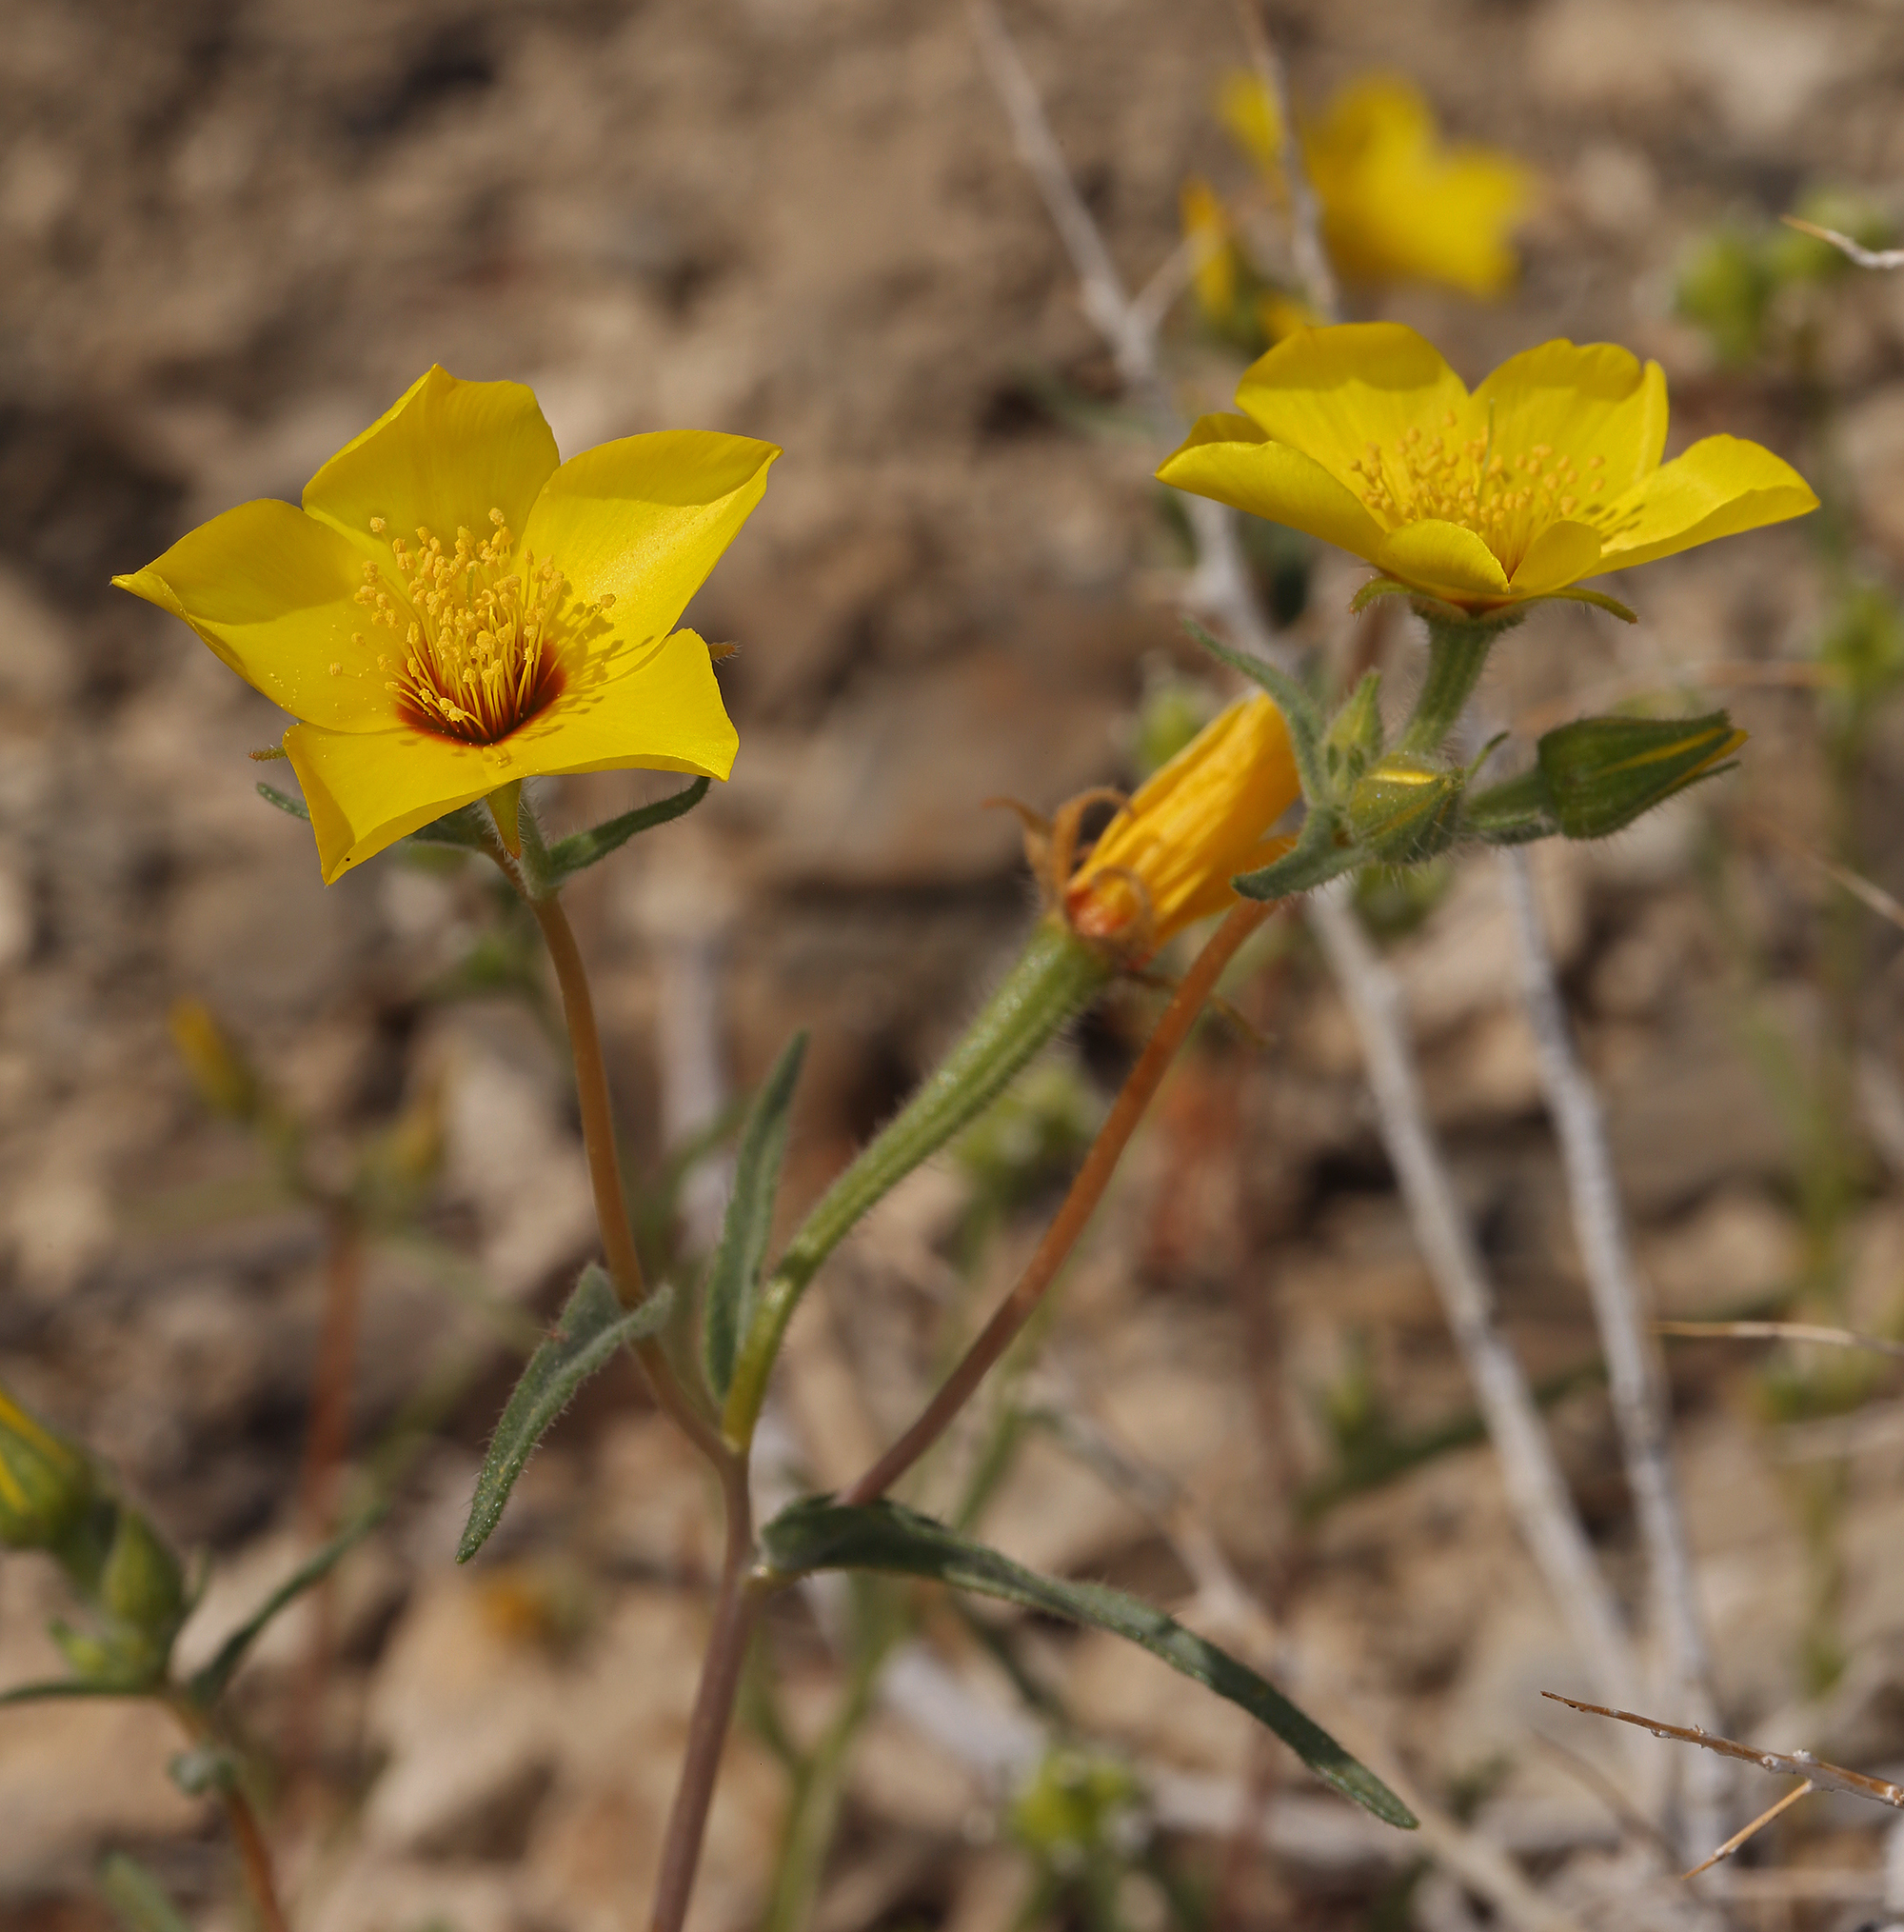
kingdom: Plantae
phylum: Tracheophyta
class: Magnoliopsida
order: Cornales
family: Loasaceae
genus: Mentzelia
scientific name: Mentzelia nitens
